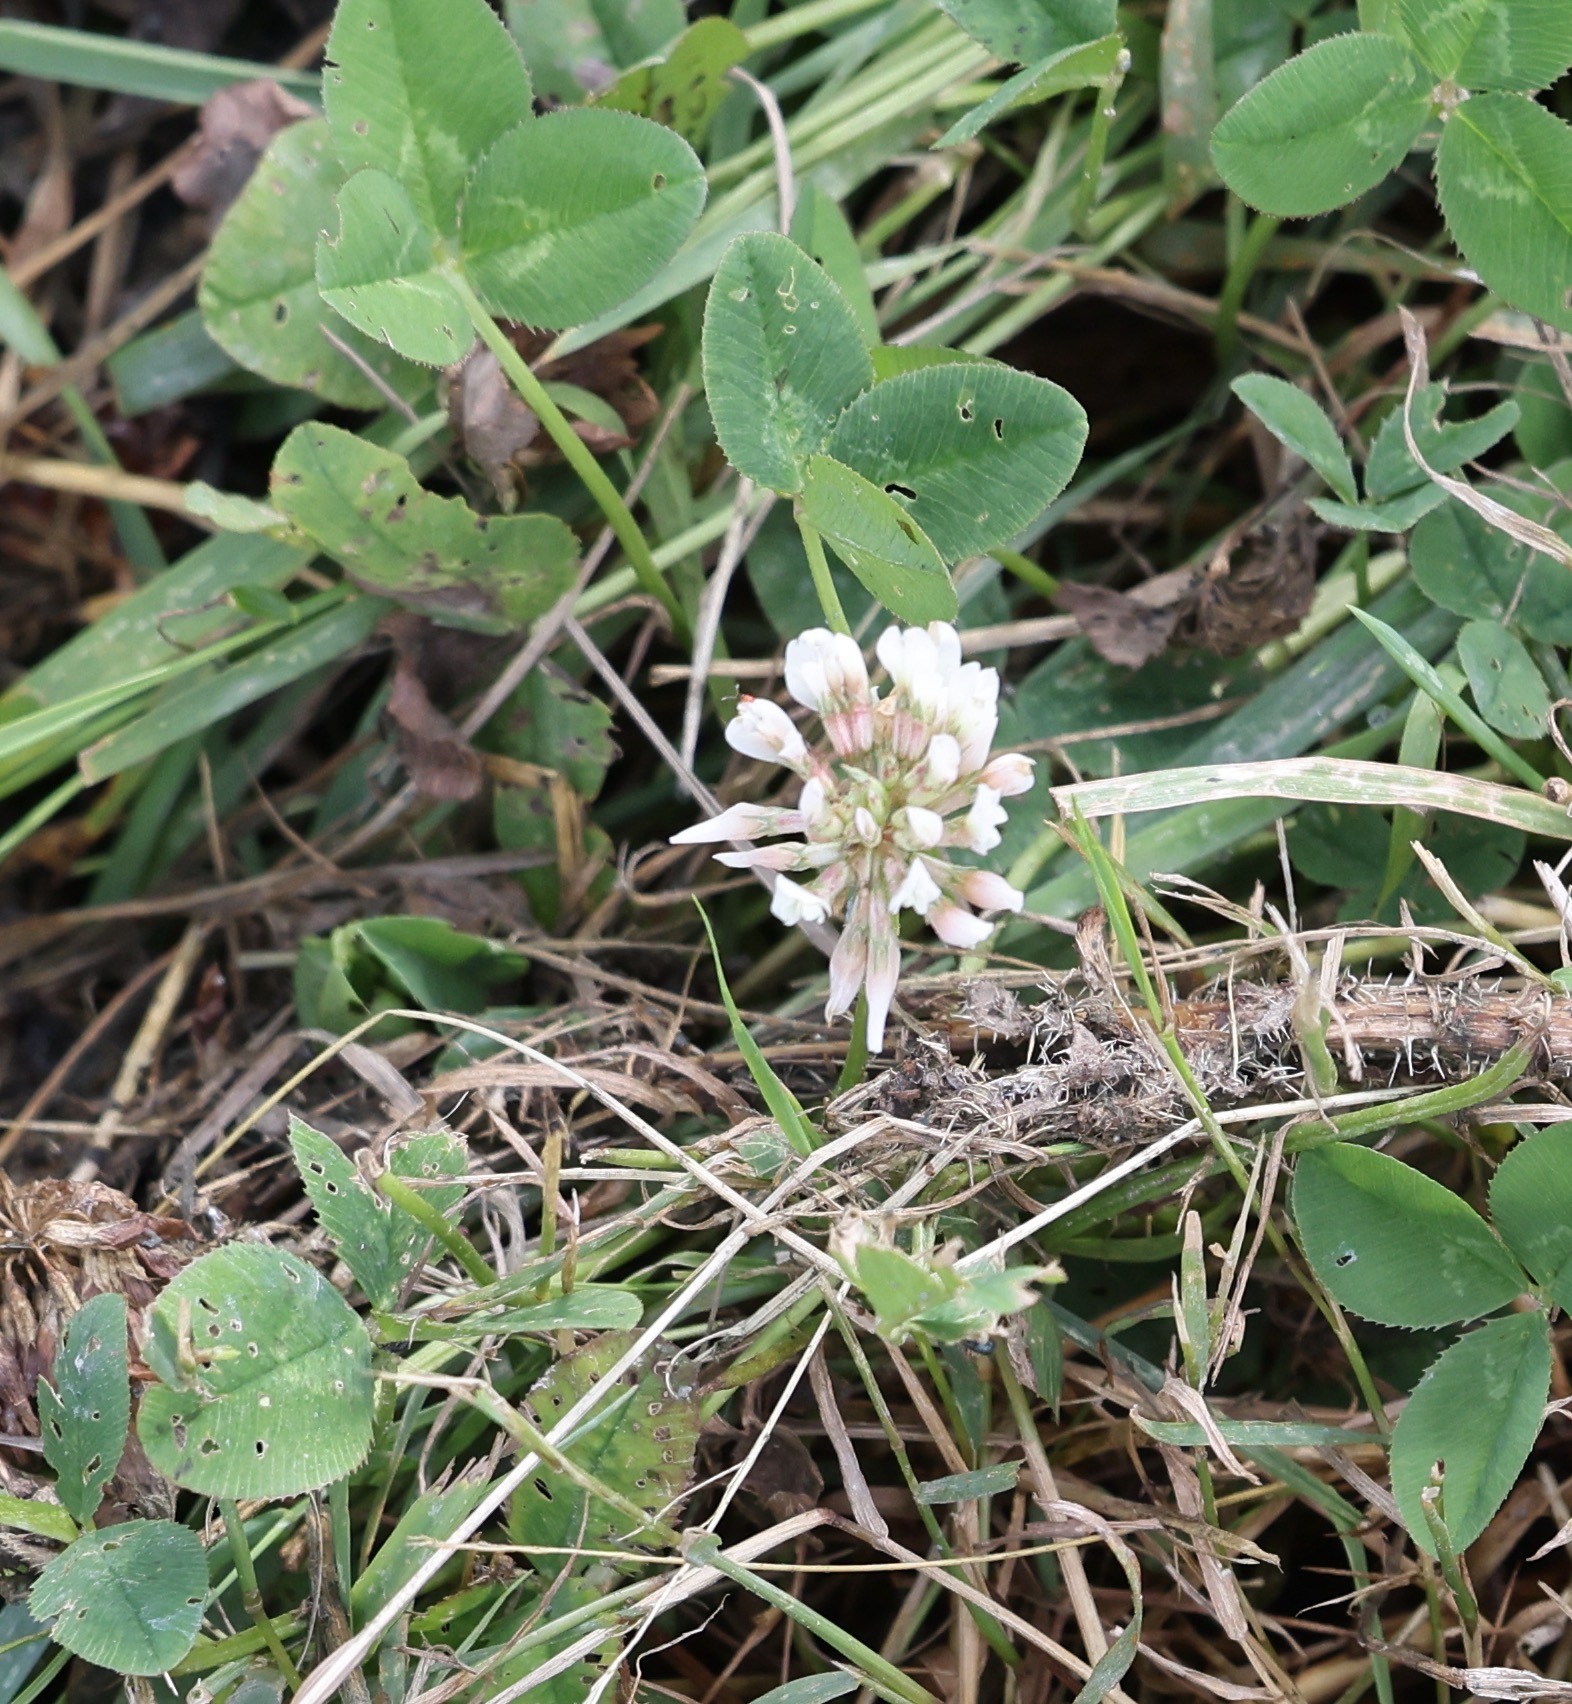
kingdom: Plantae
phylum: Tracheophyta
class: Magnoliopsida
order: Fabales
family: Fabaceae
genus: Trifolium
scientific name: Trifolium repens
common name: White clover
